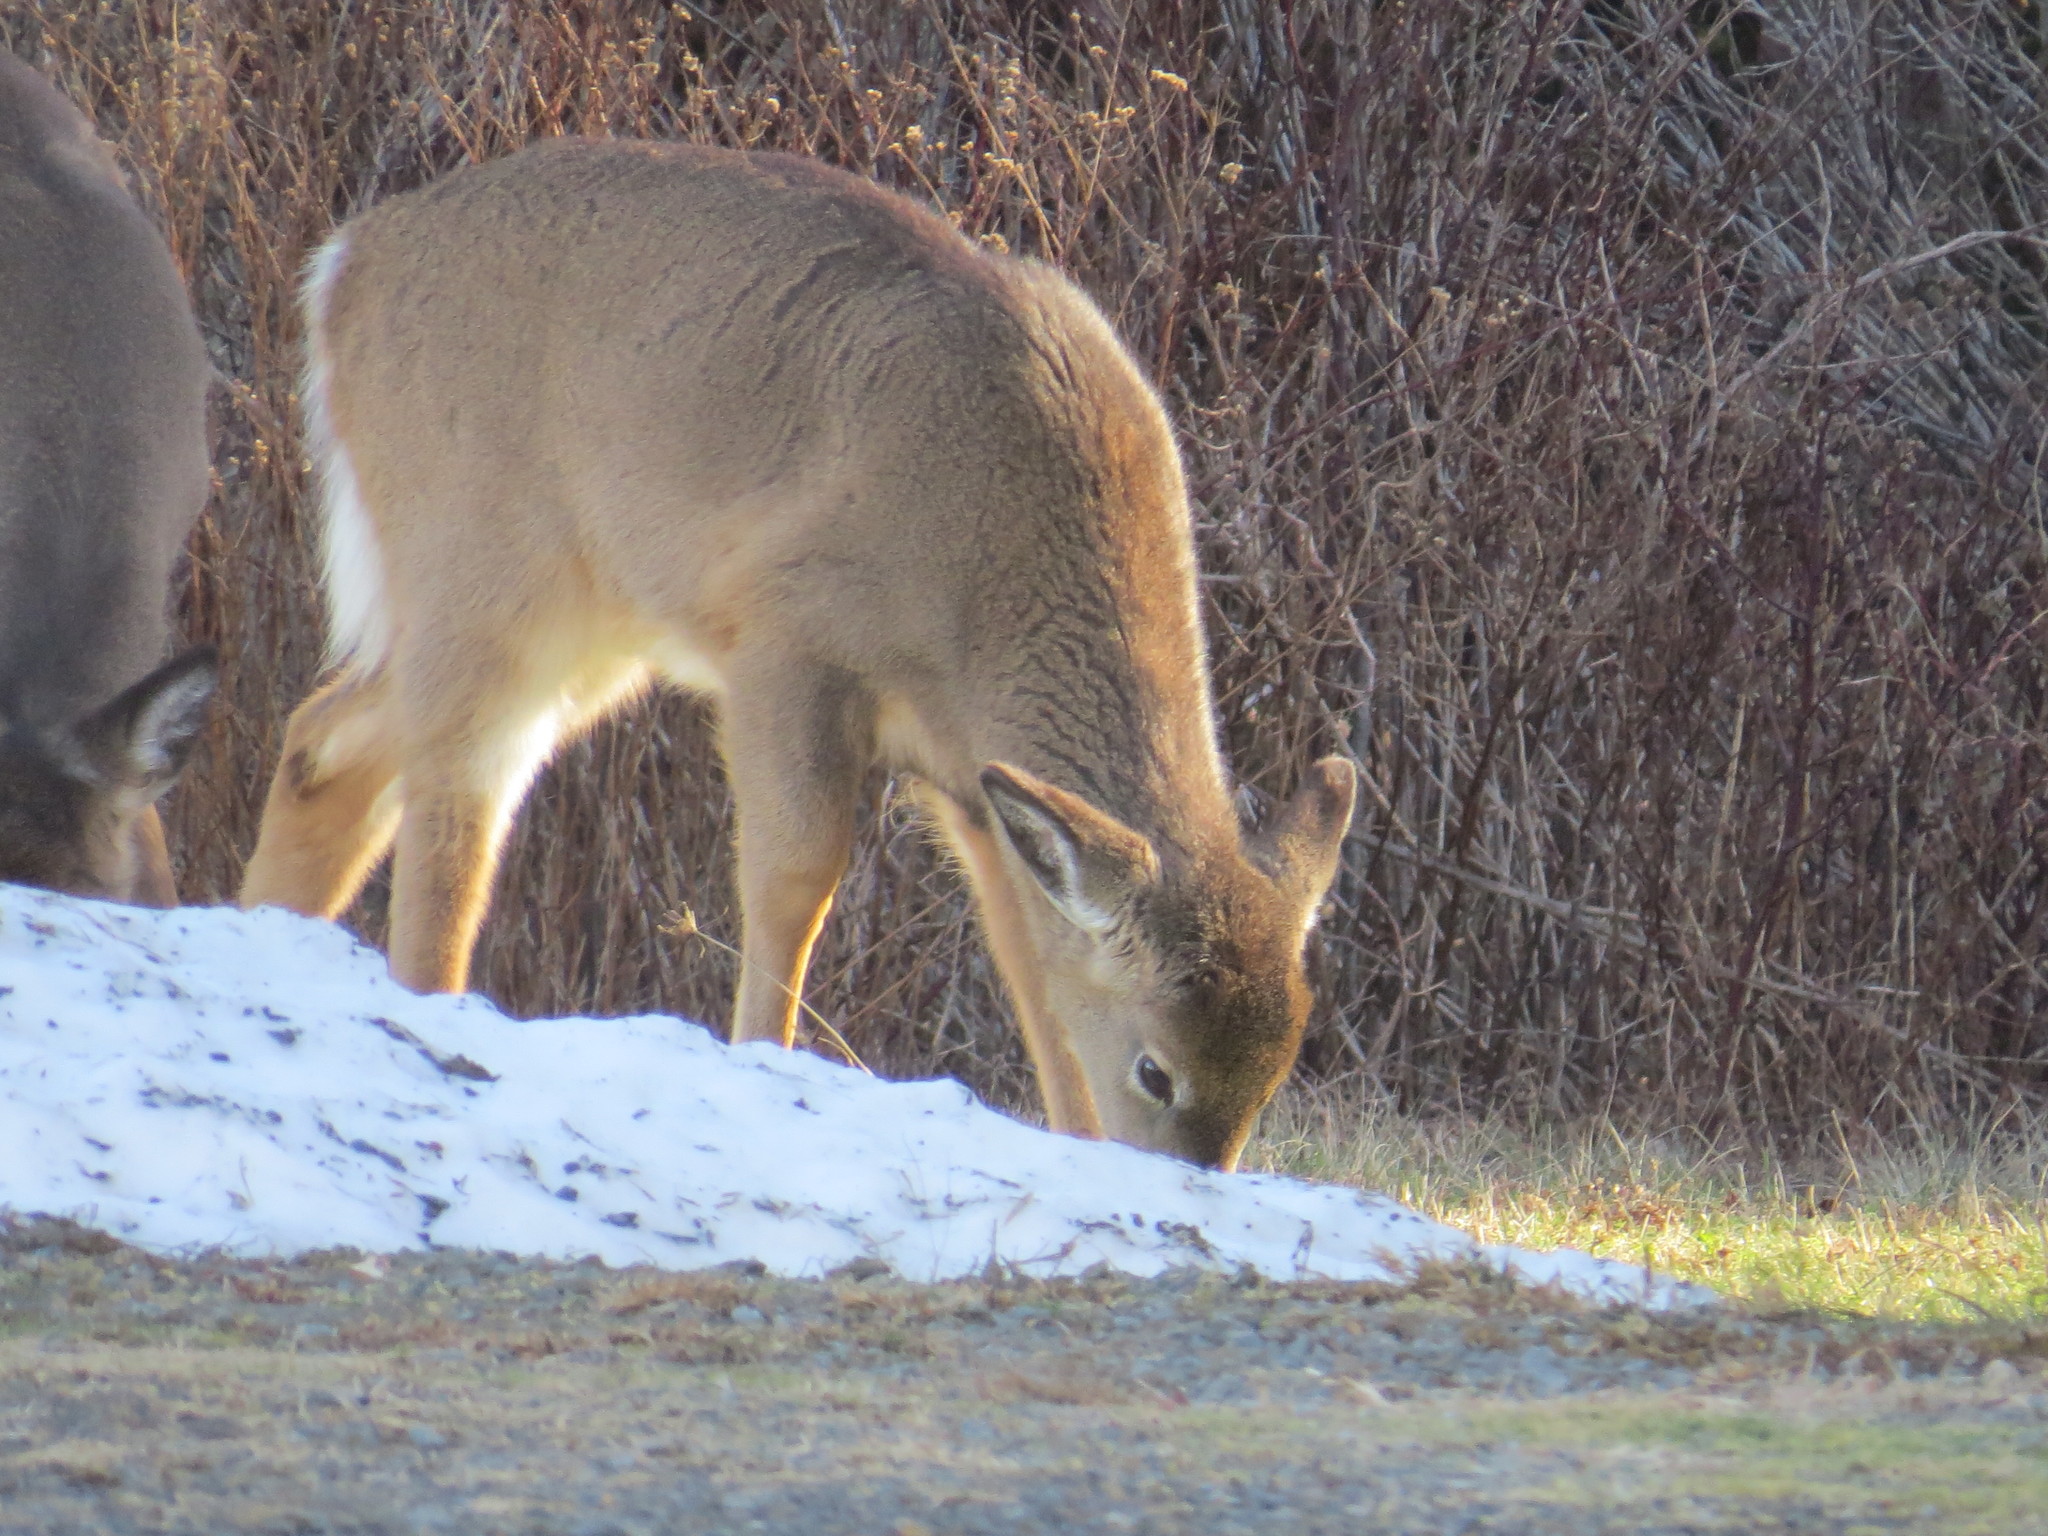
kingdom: Animalia
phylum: Chordata
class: Mammalia
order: Artiodactyla
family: Cervidae
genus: Odocoileus
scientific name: Odocoileus virginianus
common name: White-tailed deer
